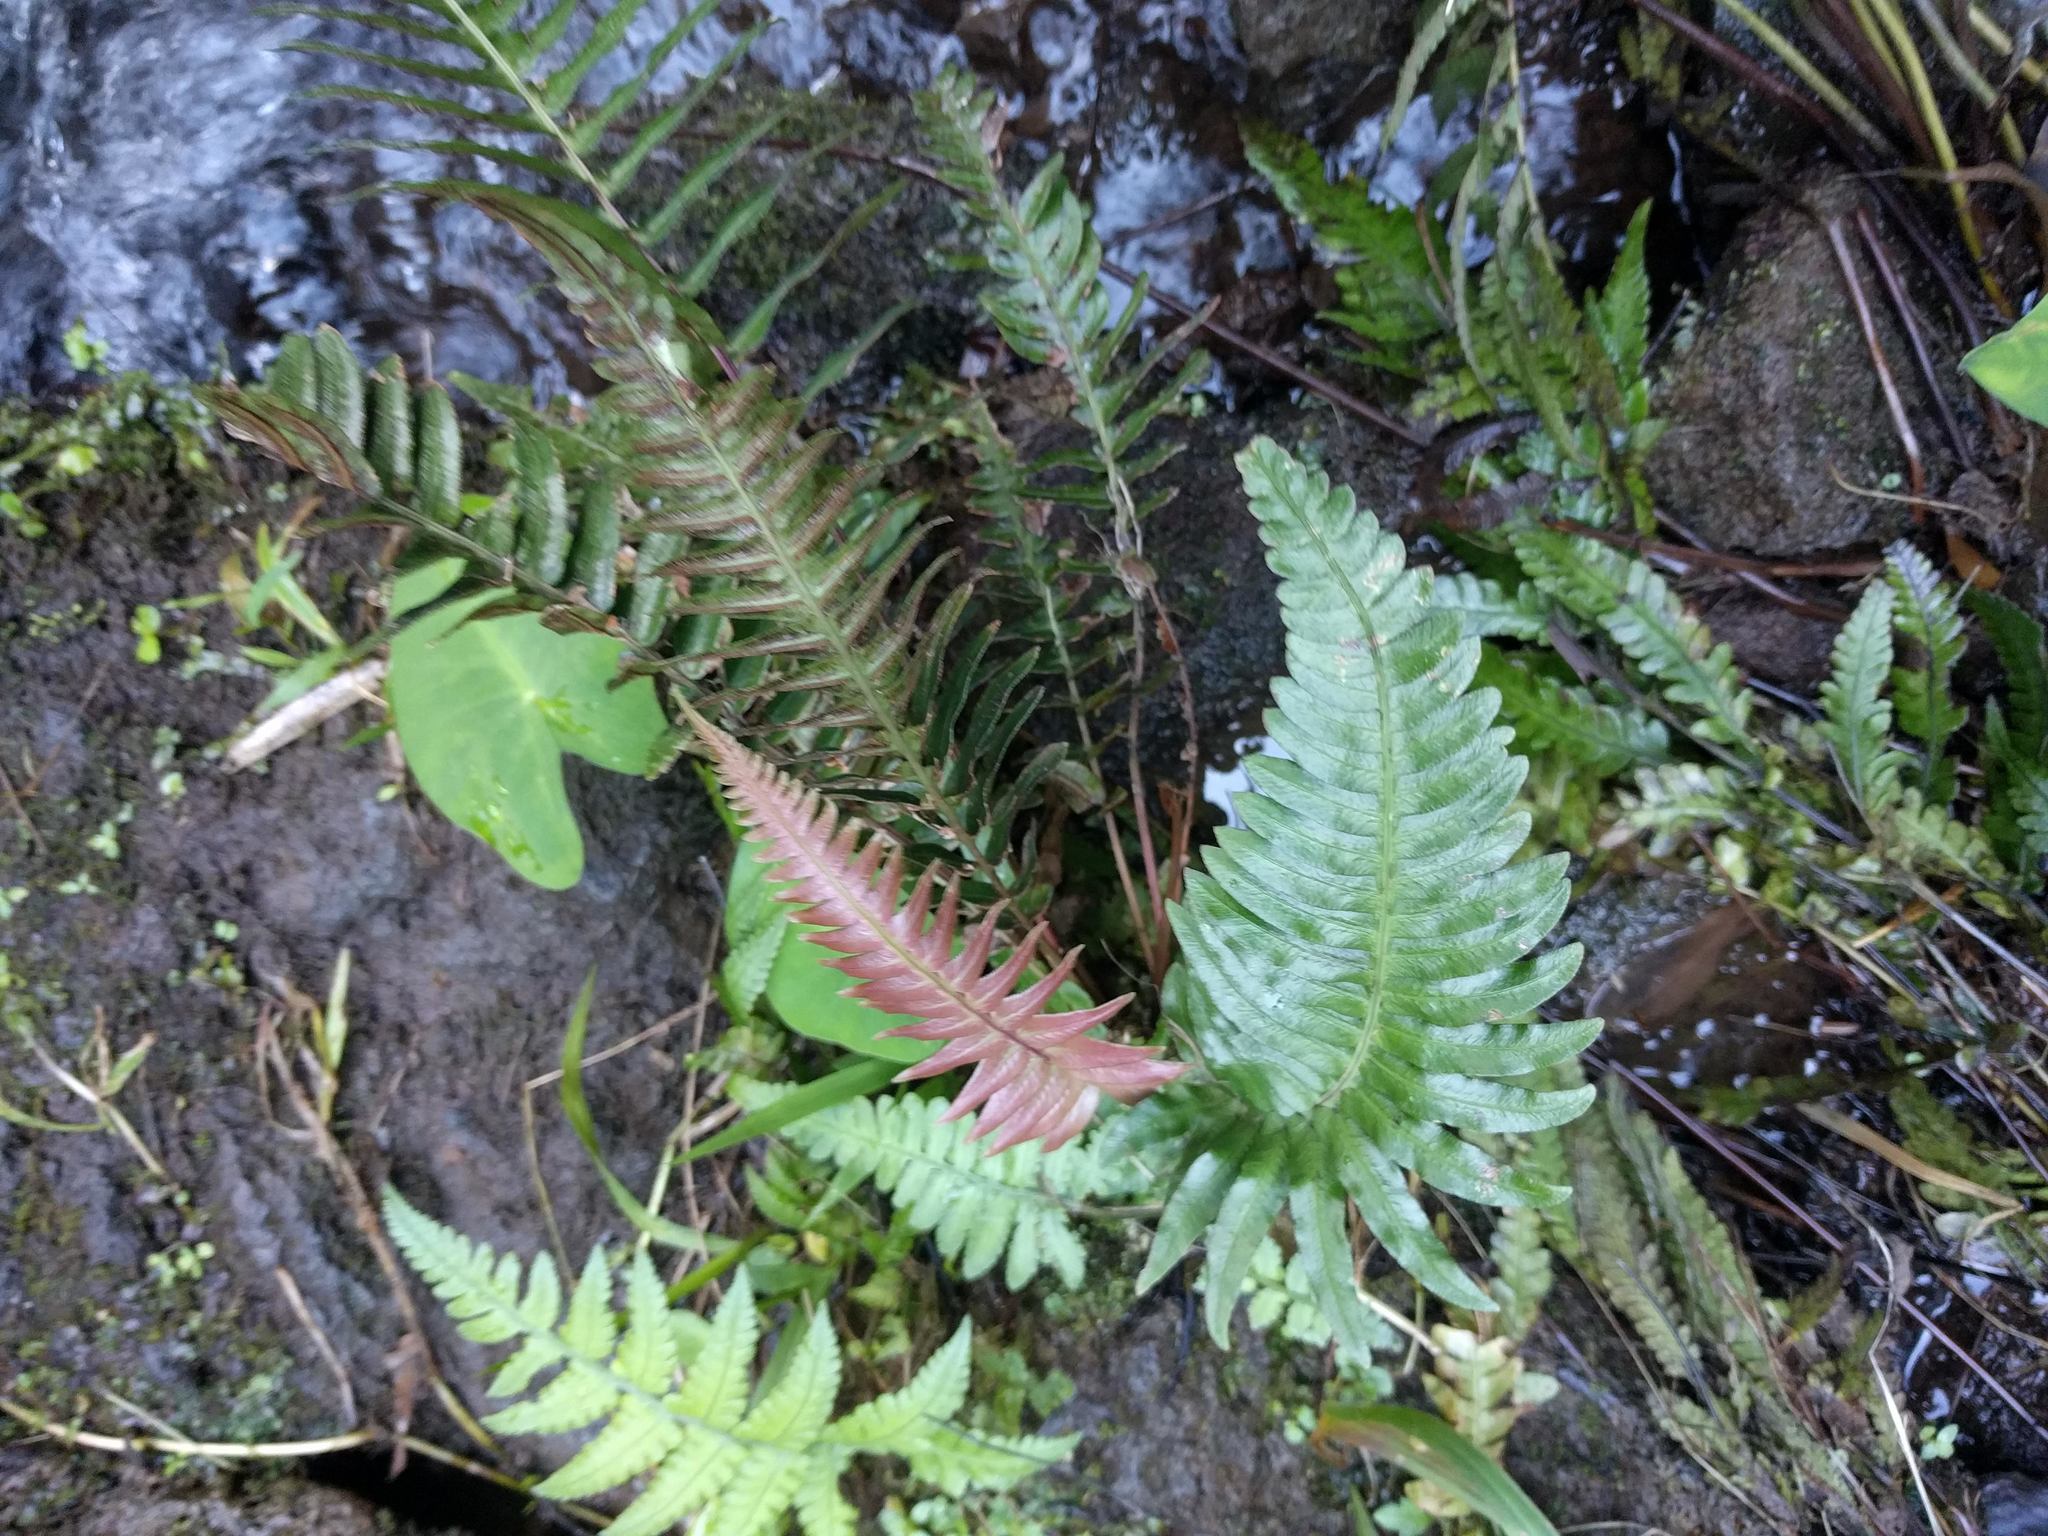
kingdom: Plantae
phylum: Tracheophyta
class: Polypodiopsida
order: Polypodiales
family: Blechnaceae
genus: Blechnum
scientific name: Blechnum appendiculatum
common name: Palm fern
